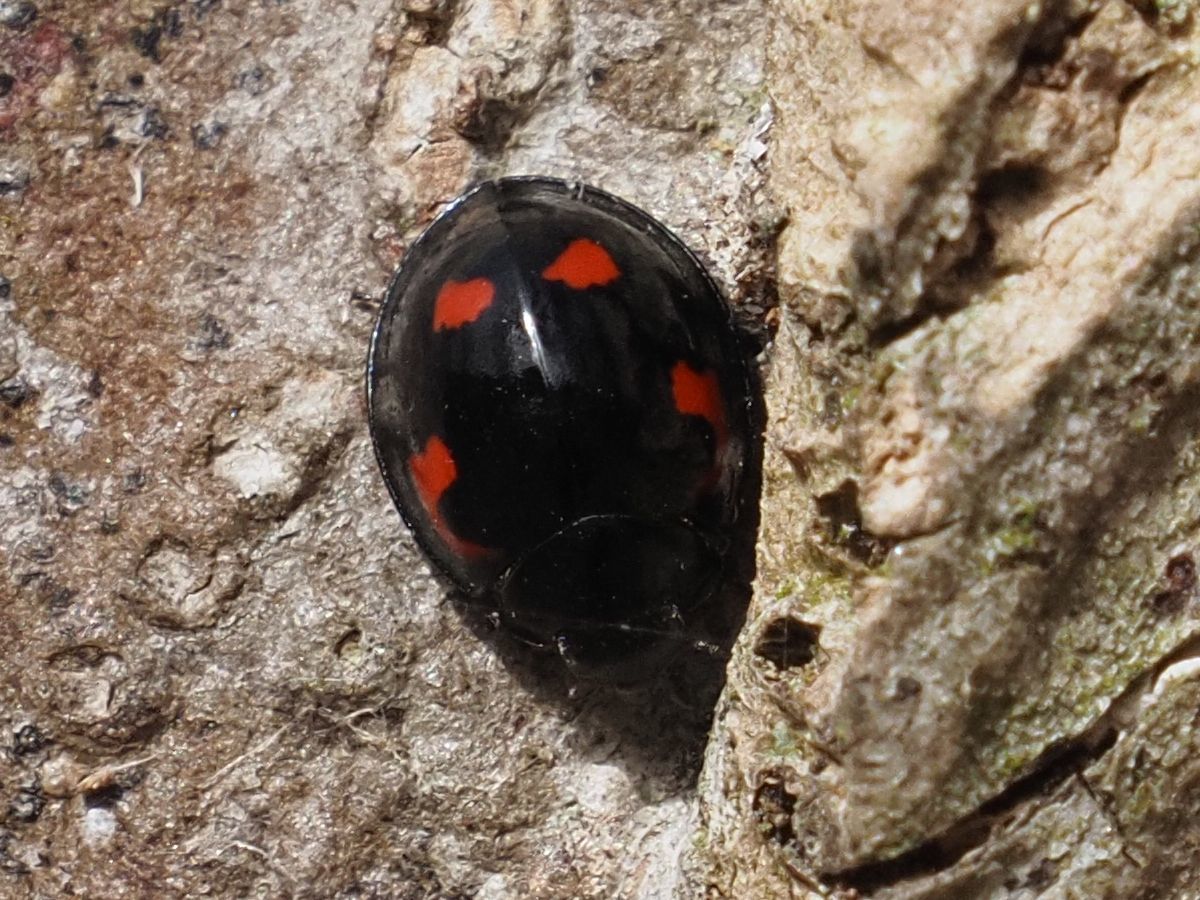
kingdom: Animalia
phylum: Arthropoda
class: Insecta
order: Coleoptera
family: Coccinellidae
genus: Brumus
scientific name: Brumus quadripustulatus
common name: Ladybird beetle
